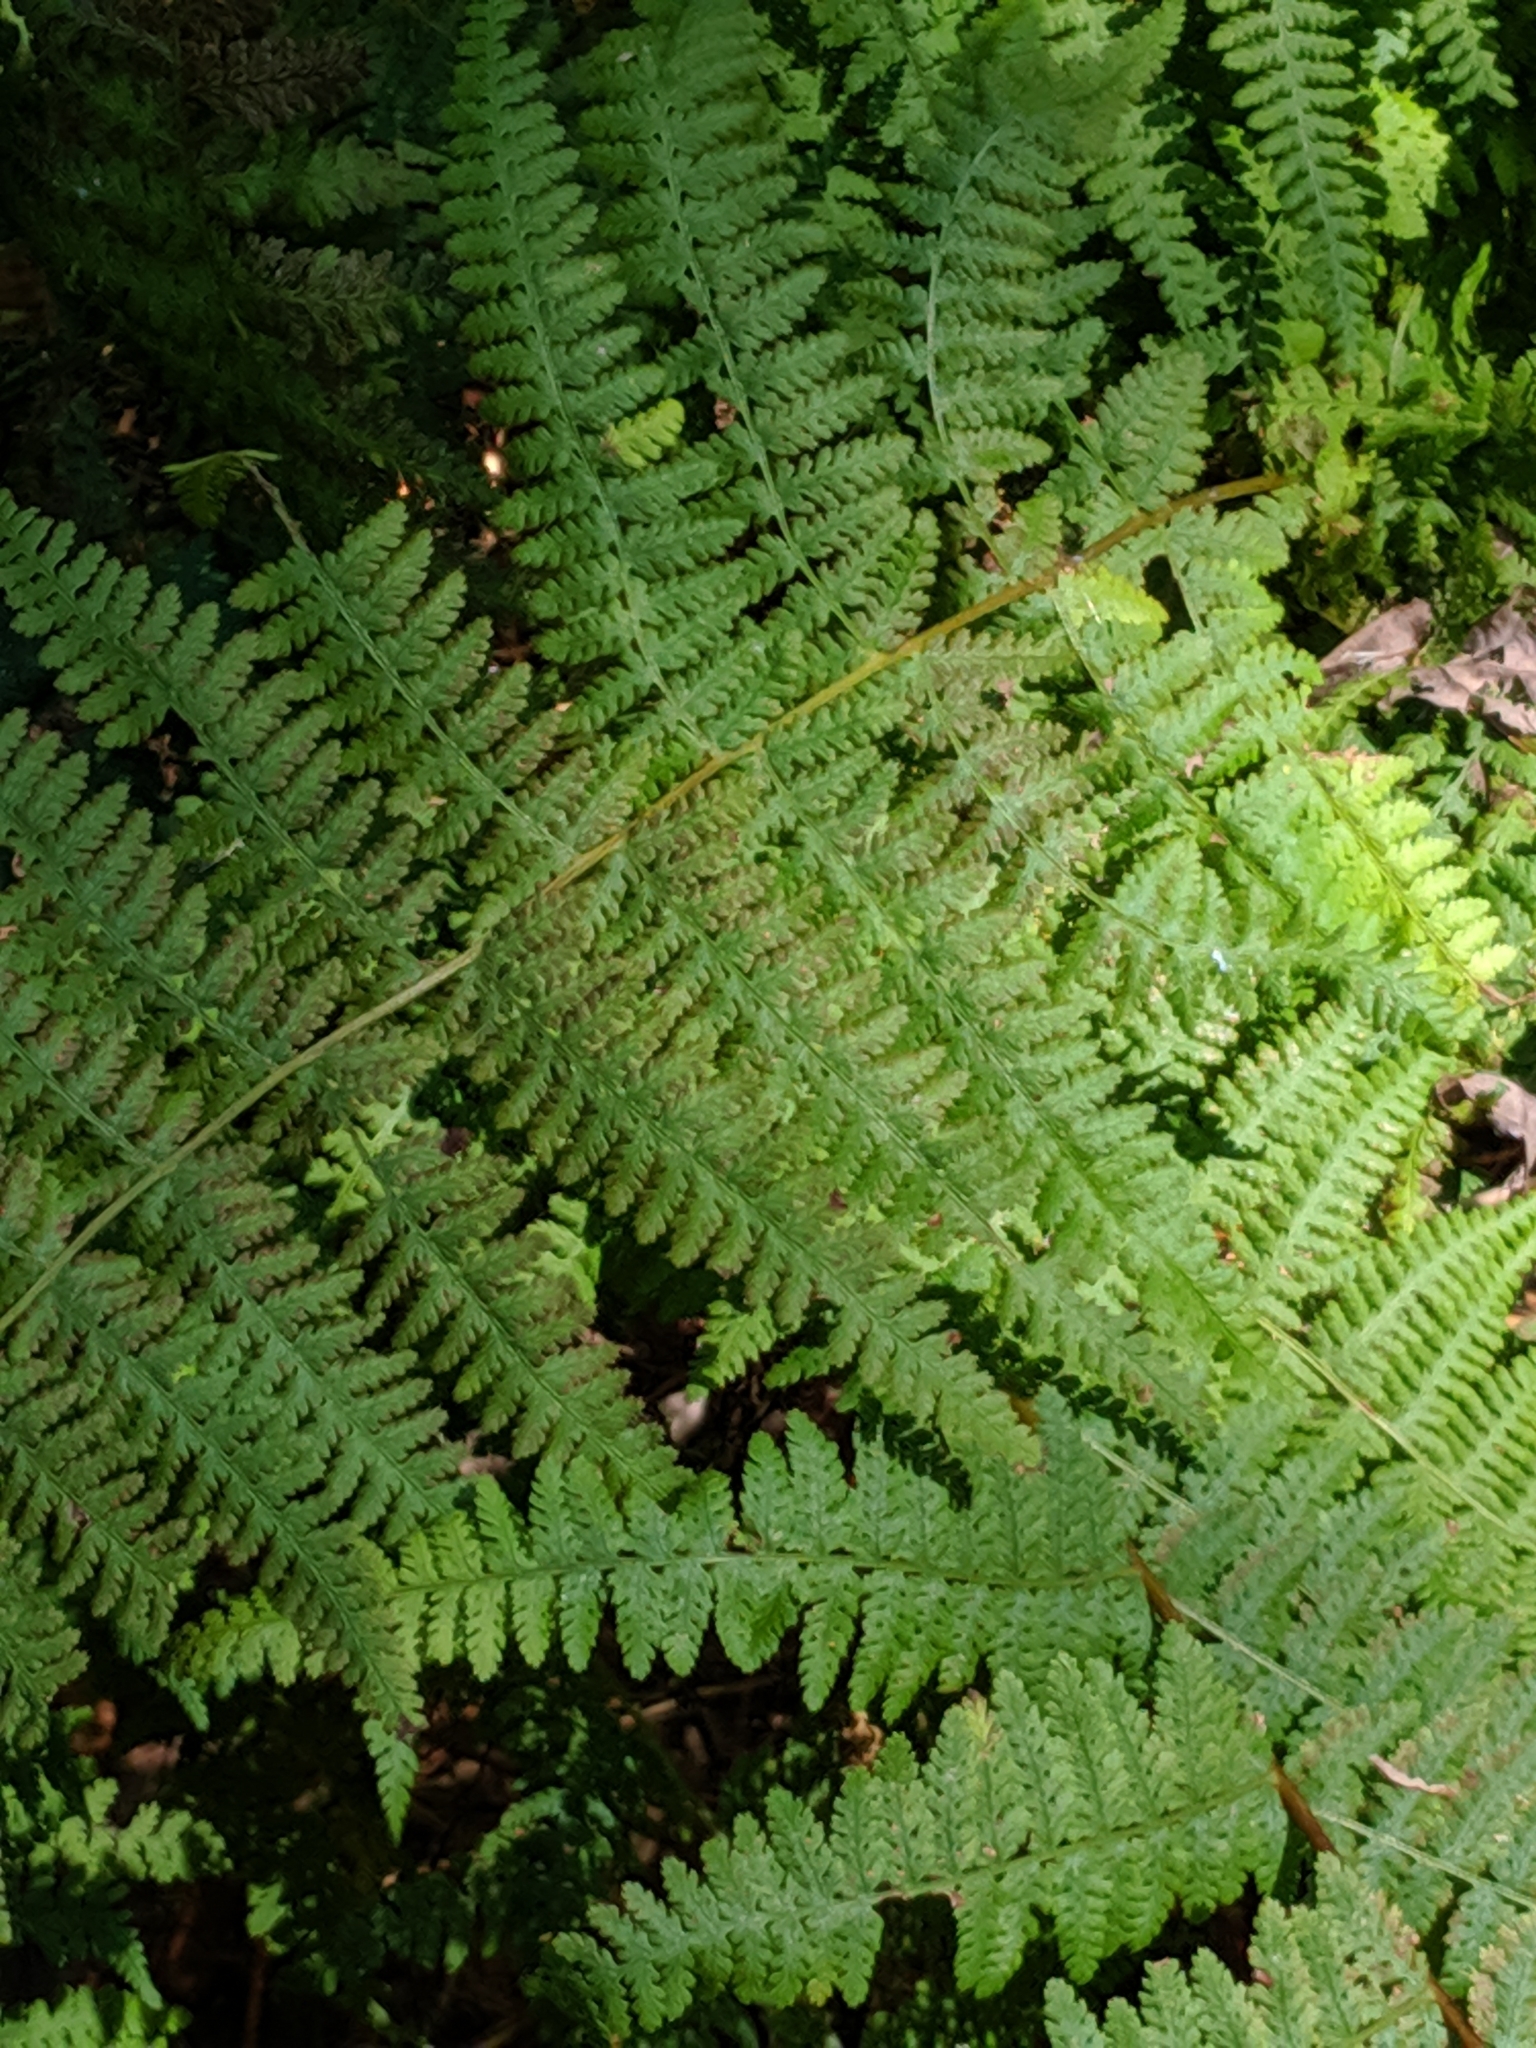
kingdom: Plantae
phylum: Tracheophyta
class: Polypodiopsida
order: Polypodiales
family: Dennstaedtiaceae
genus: Sitobolium
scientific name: Sitobolium punctilobum
